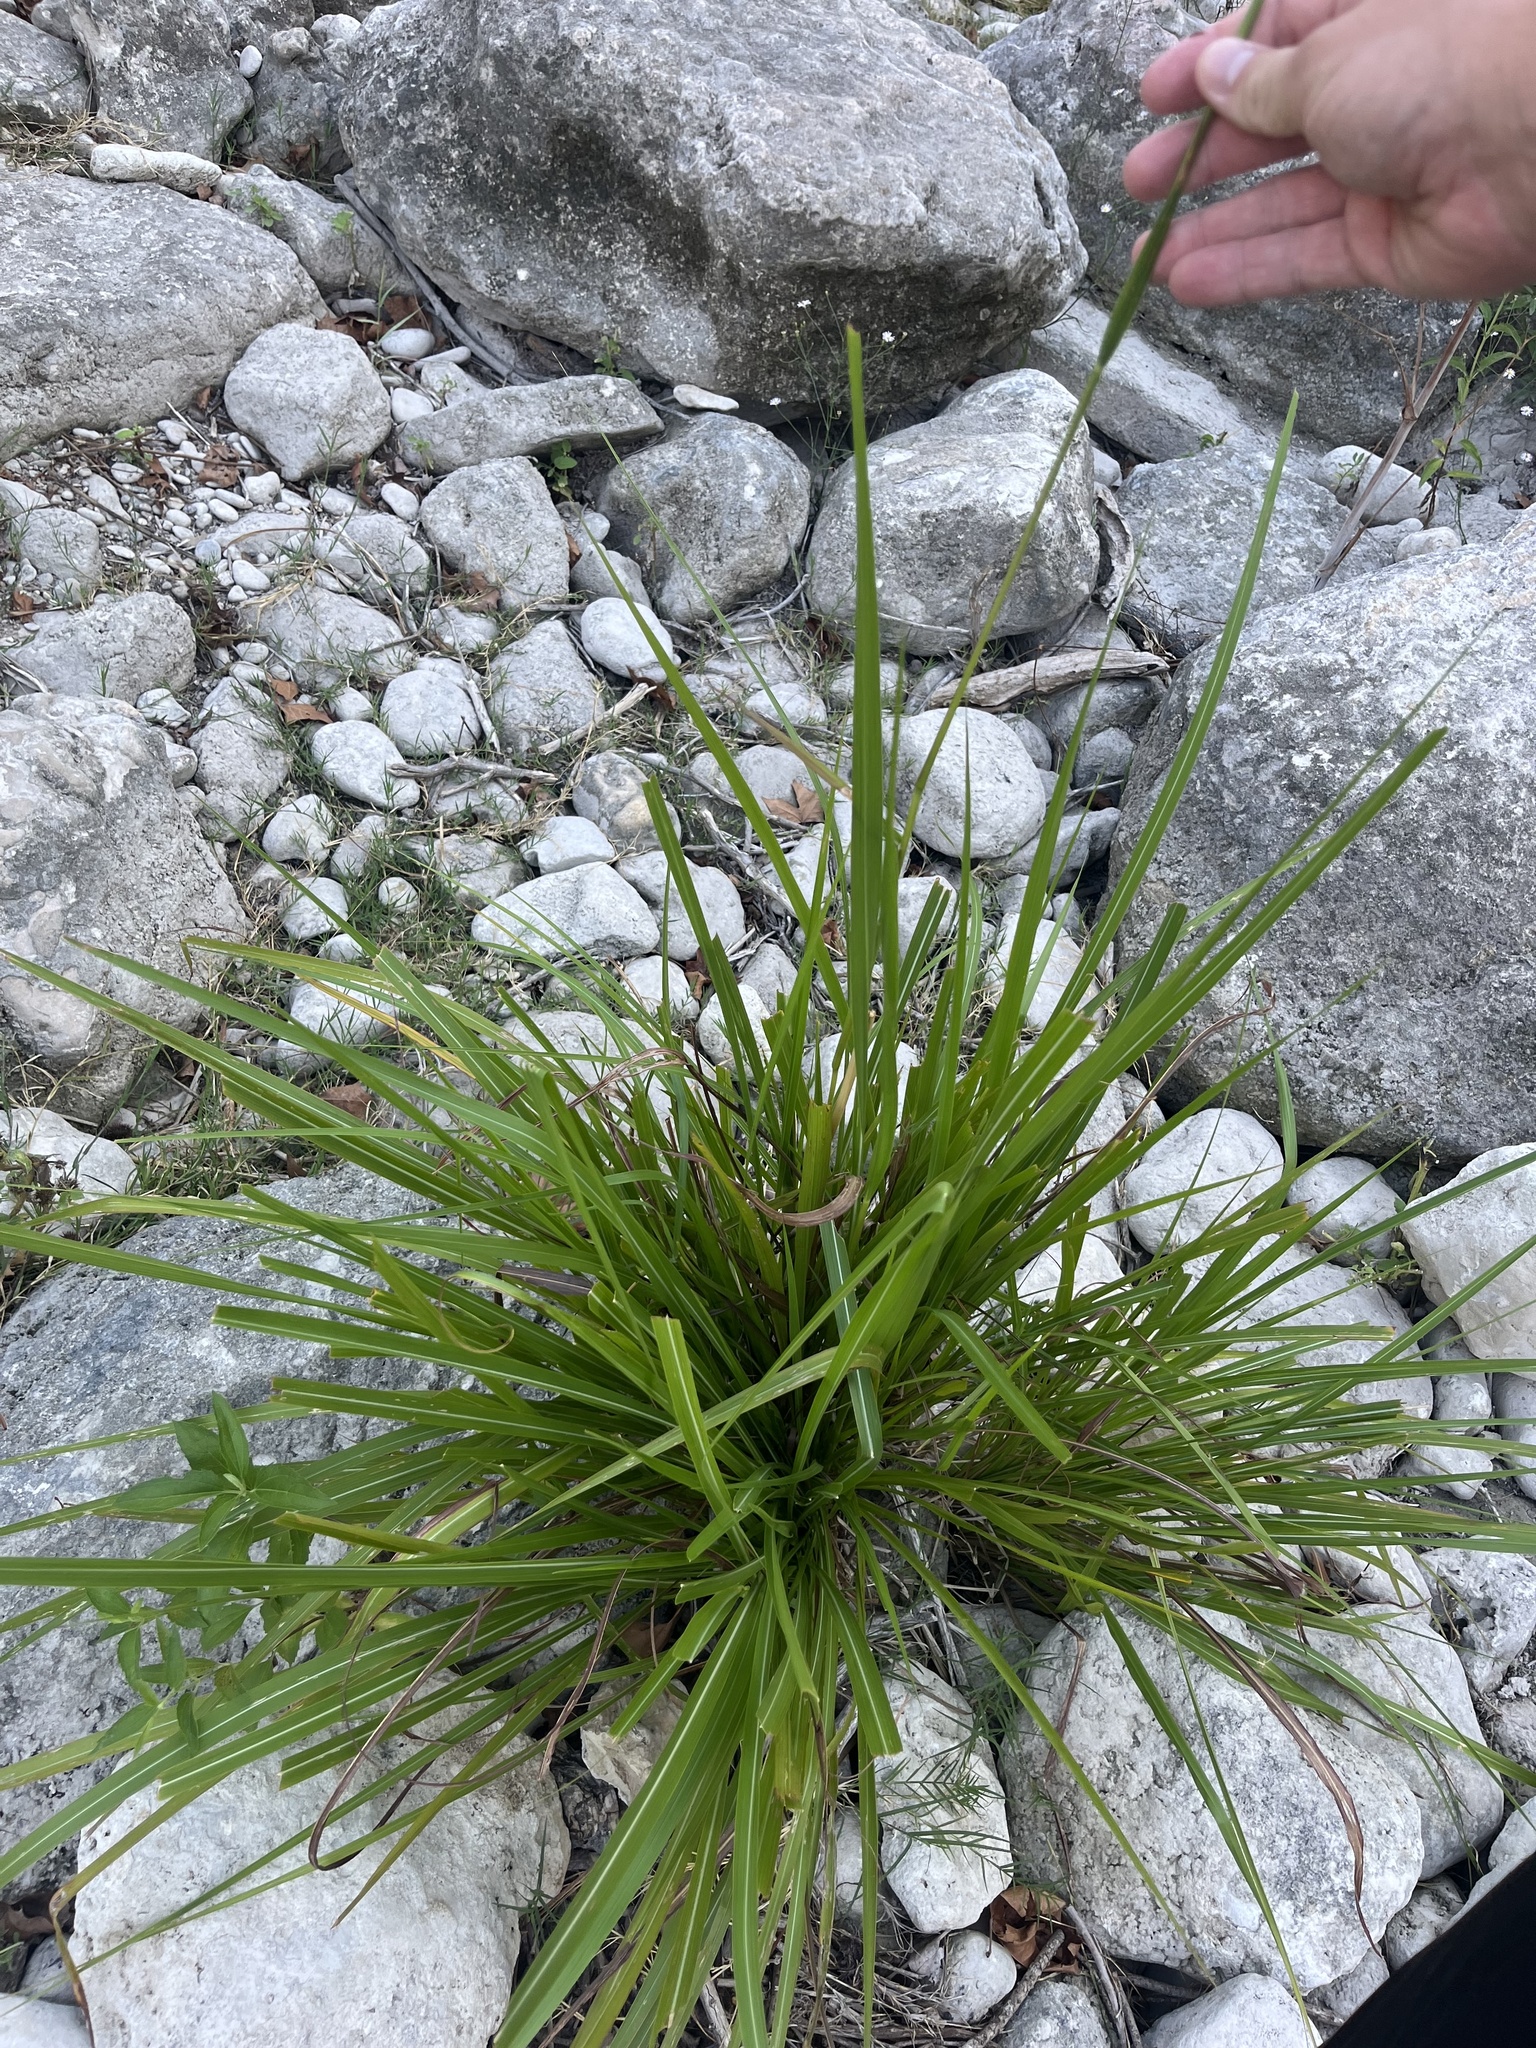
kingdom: Plantae
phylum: Tracheophyta
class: Liliopsida
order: Poales
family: Poaceae
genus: Tripsacum
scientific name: Tripsacum dactyloides
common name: Buffalo-grass
